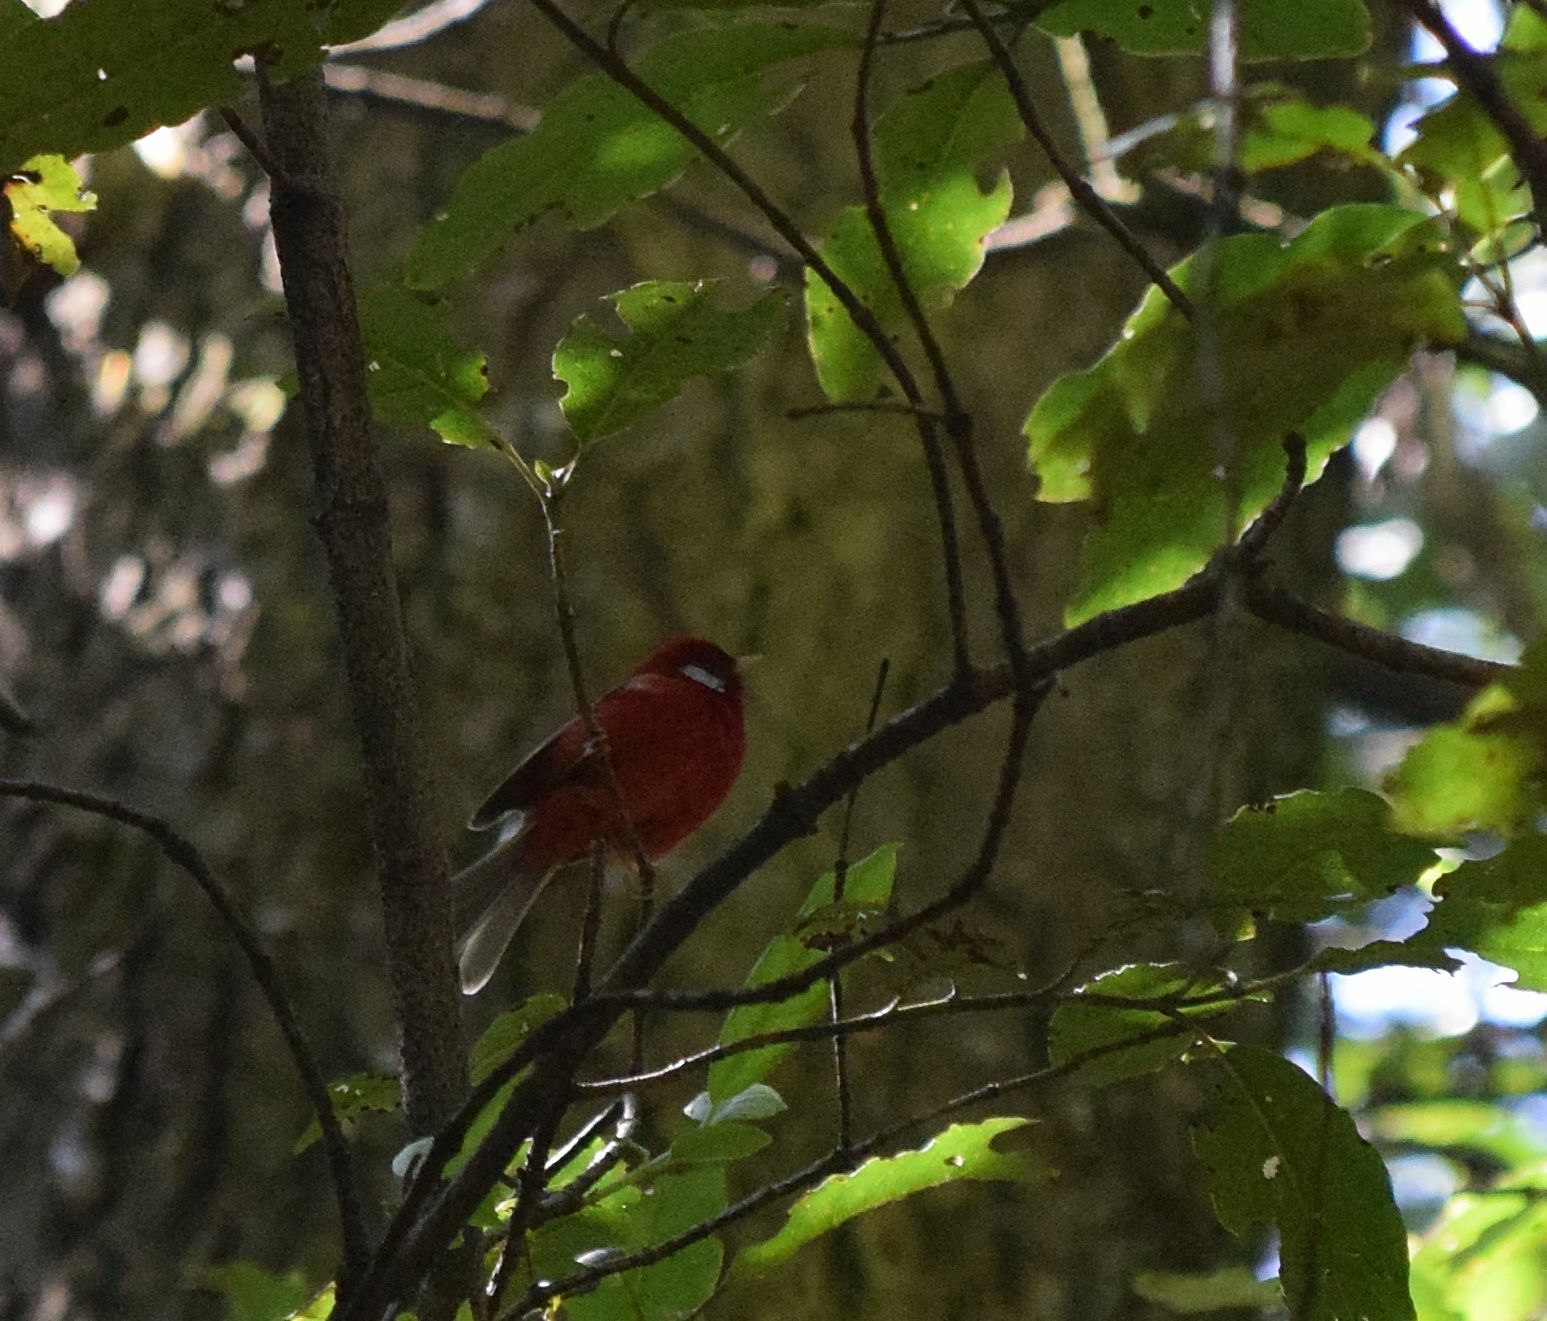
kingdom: Animalia
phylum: Chordata
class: Aves
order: Passeriformes
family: Parulidae
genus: Cardellina
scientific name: Cardellina rubra
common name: Red warbler
